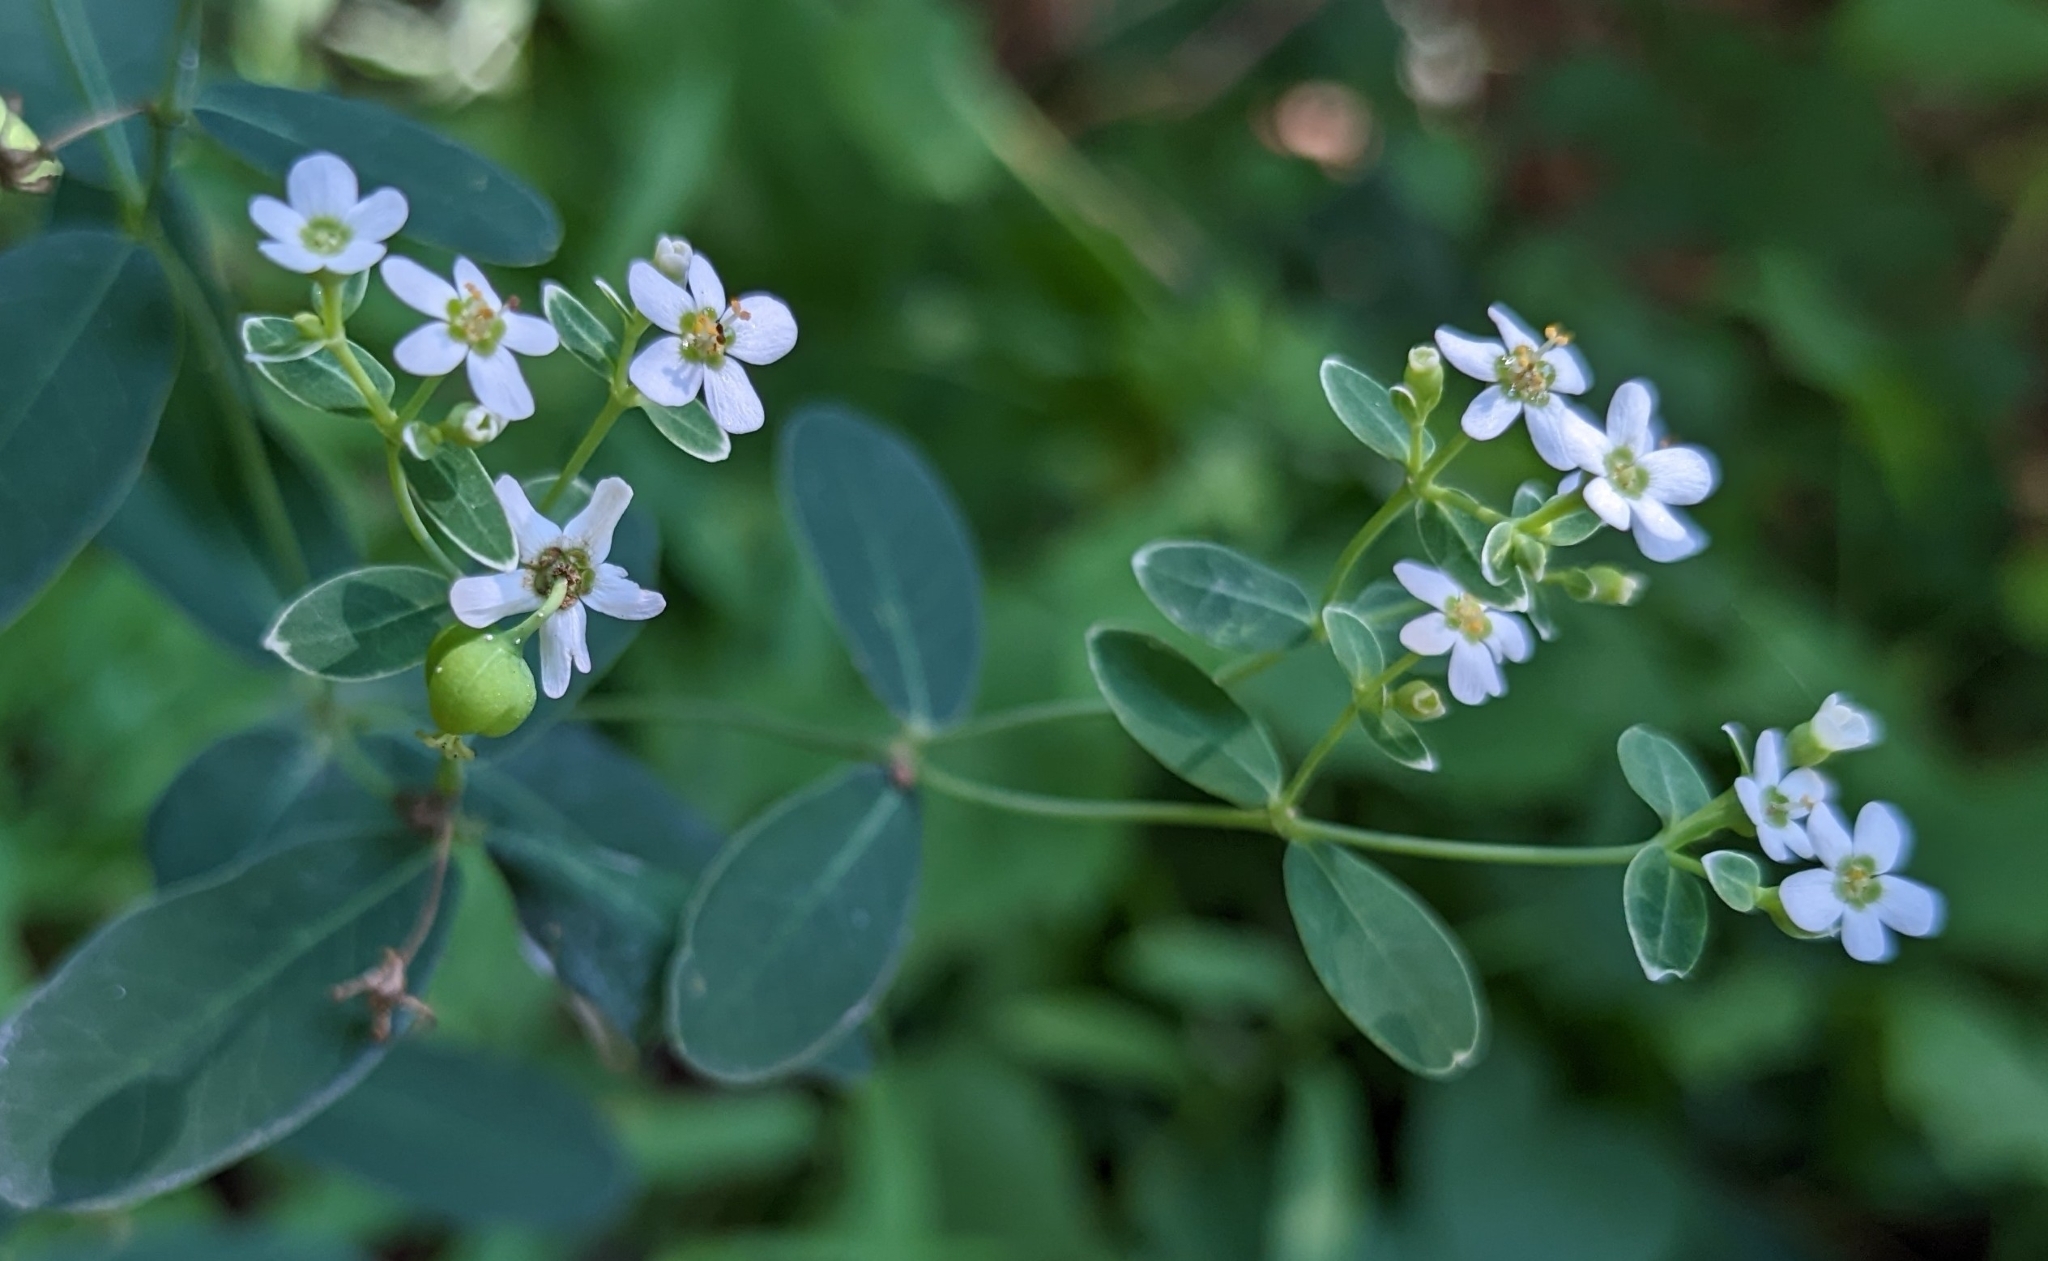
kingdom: Plantae
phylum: Tracheophyta
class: Magnoliopsida
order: Malpighiales
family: Euphorbiaceae
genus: Euphorbia
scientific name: Euphorbia corollata
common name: Flowering spurge
